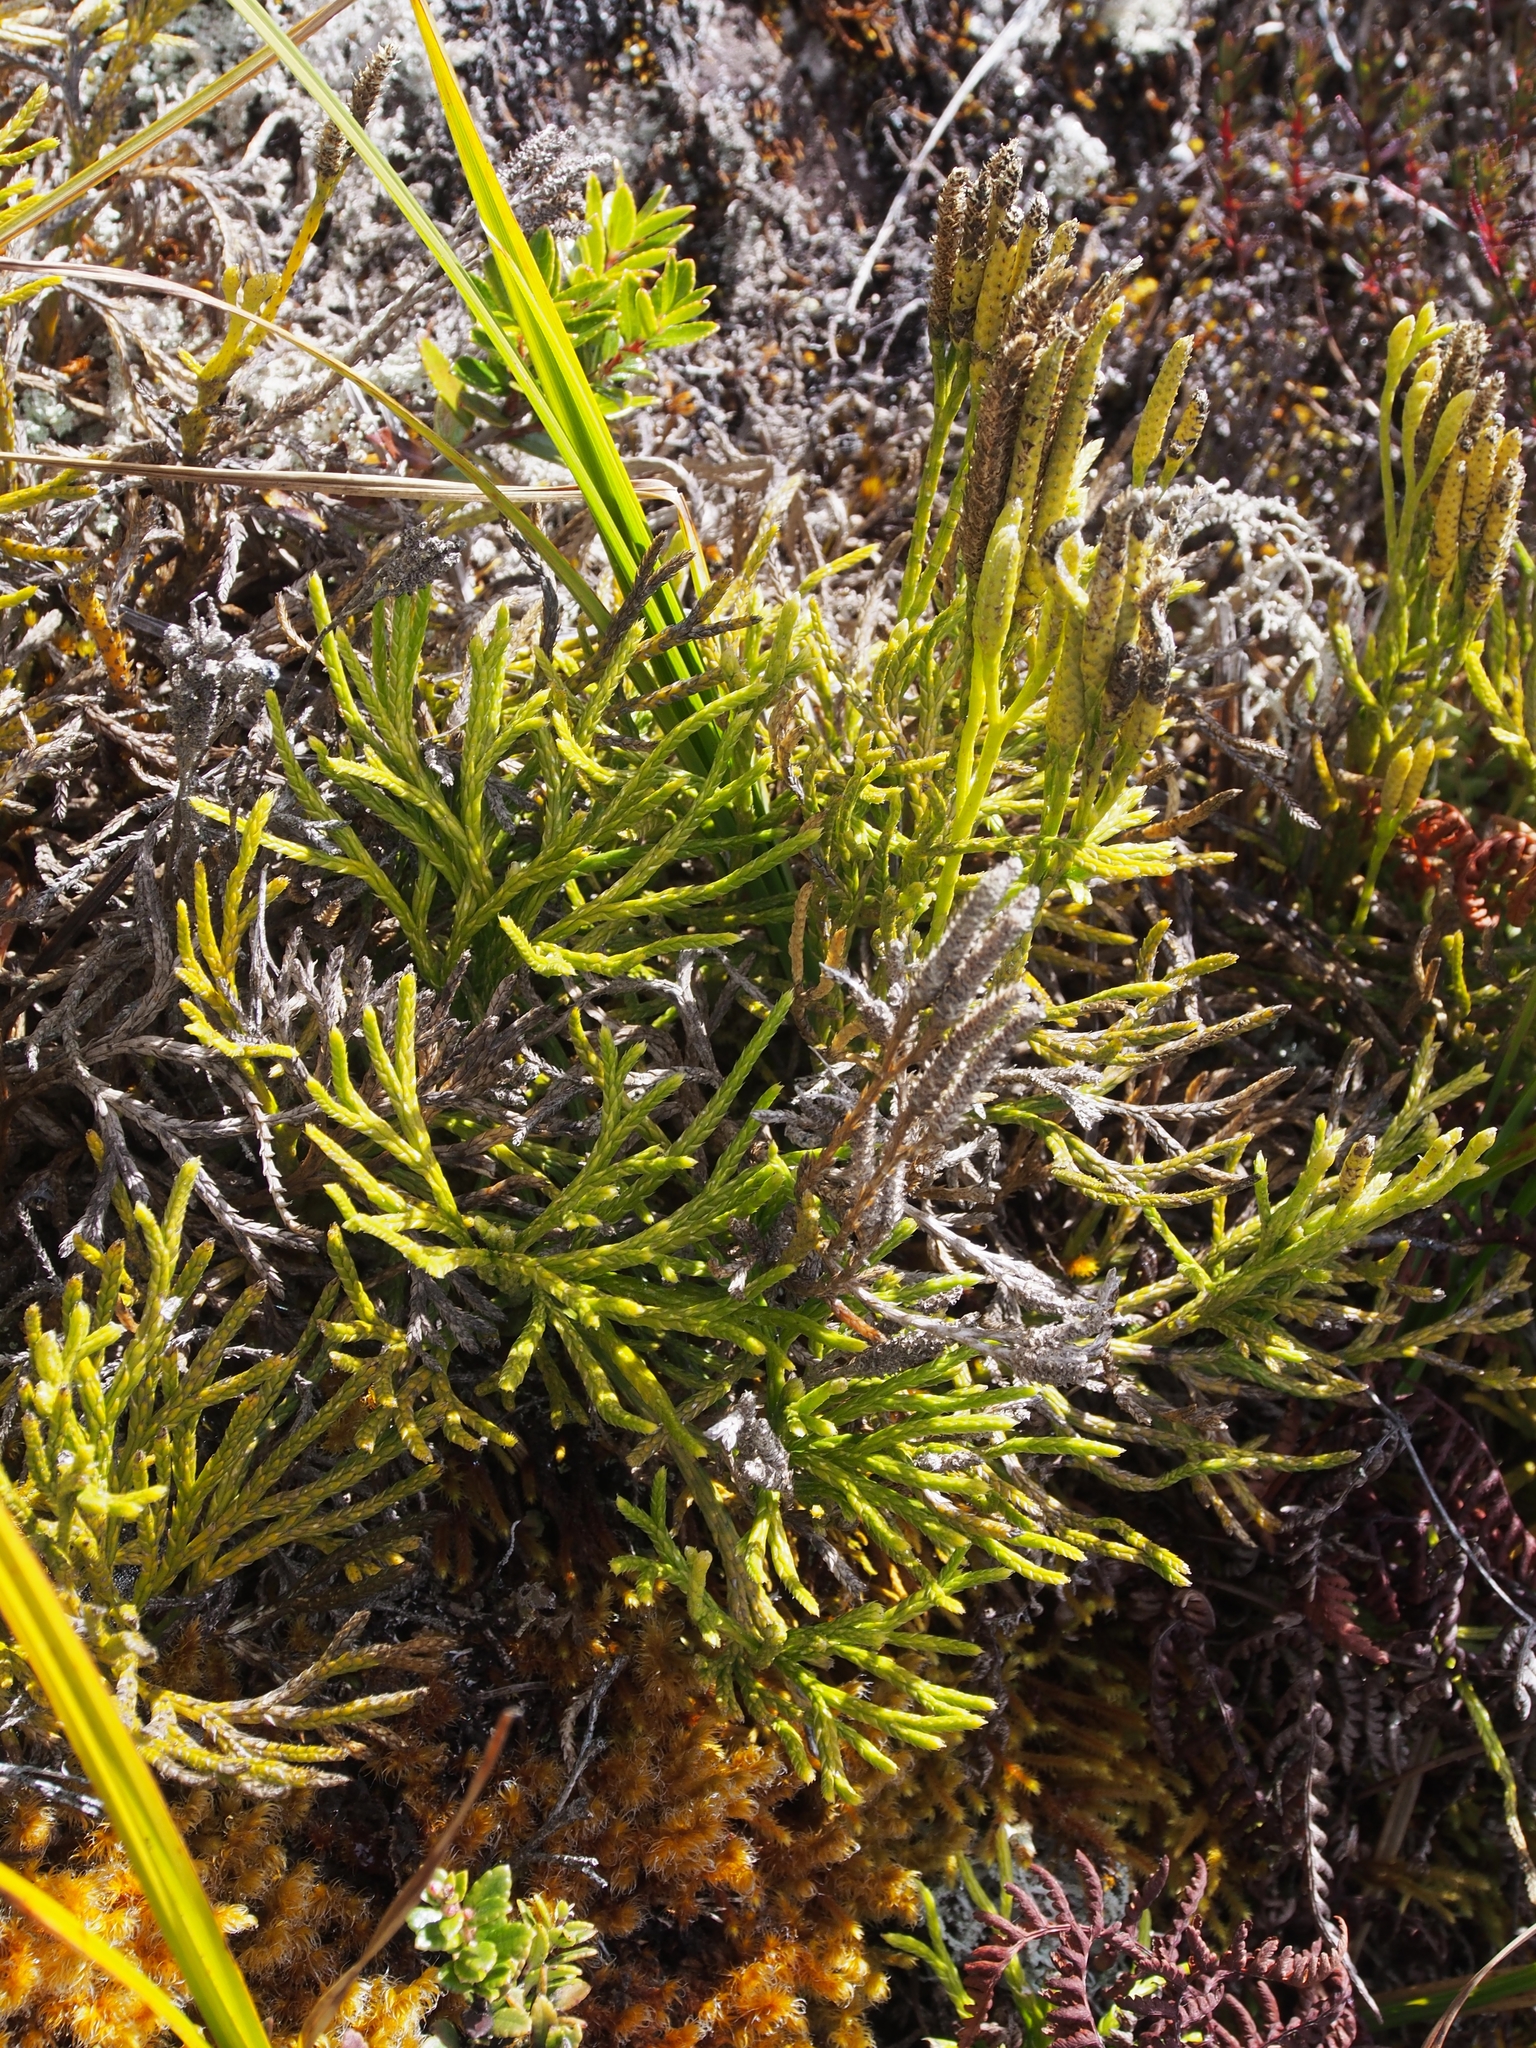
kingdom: Plantae
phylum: Tracheophyta
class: Lycopodiopsida
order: Lycopodiales
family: Lycopodiaceae
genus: Diphasiastrum
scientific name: Diphasiastrum thyoides
